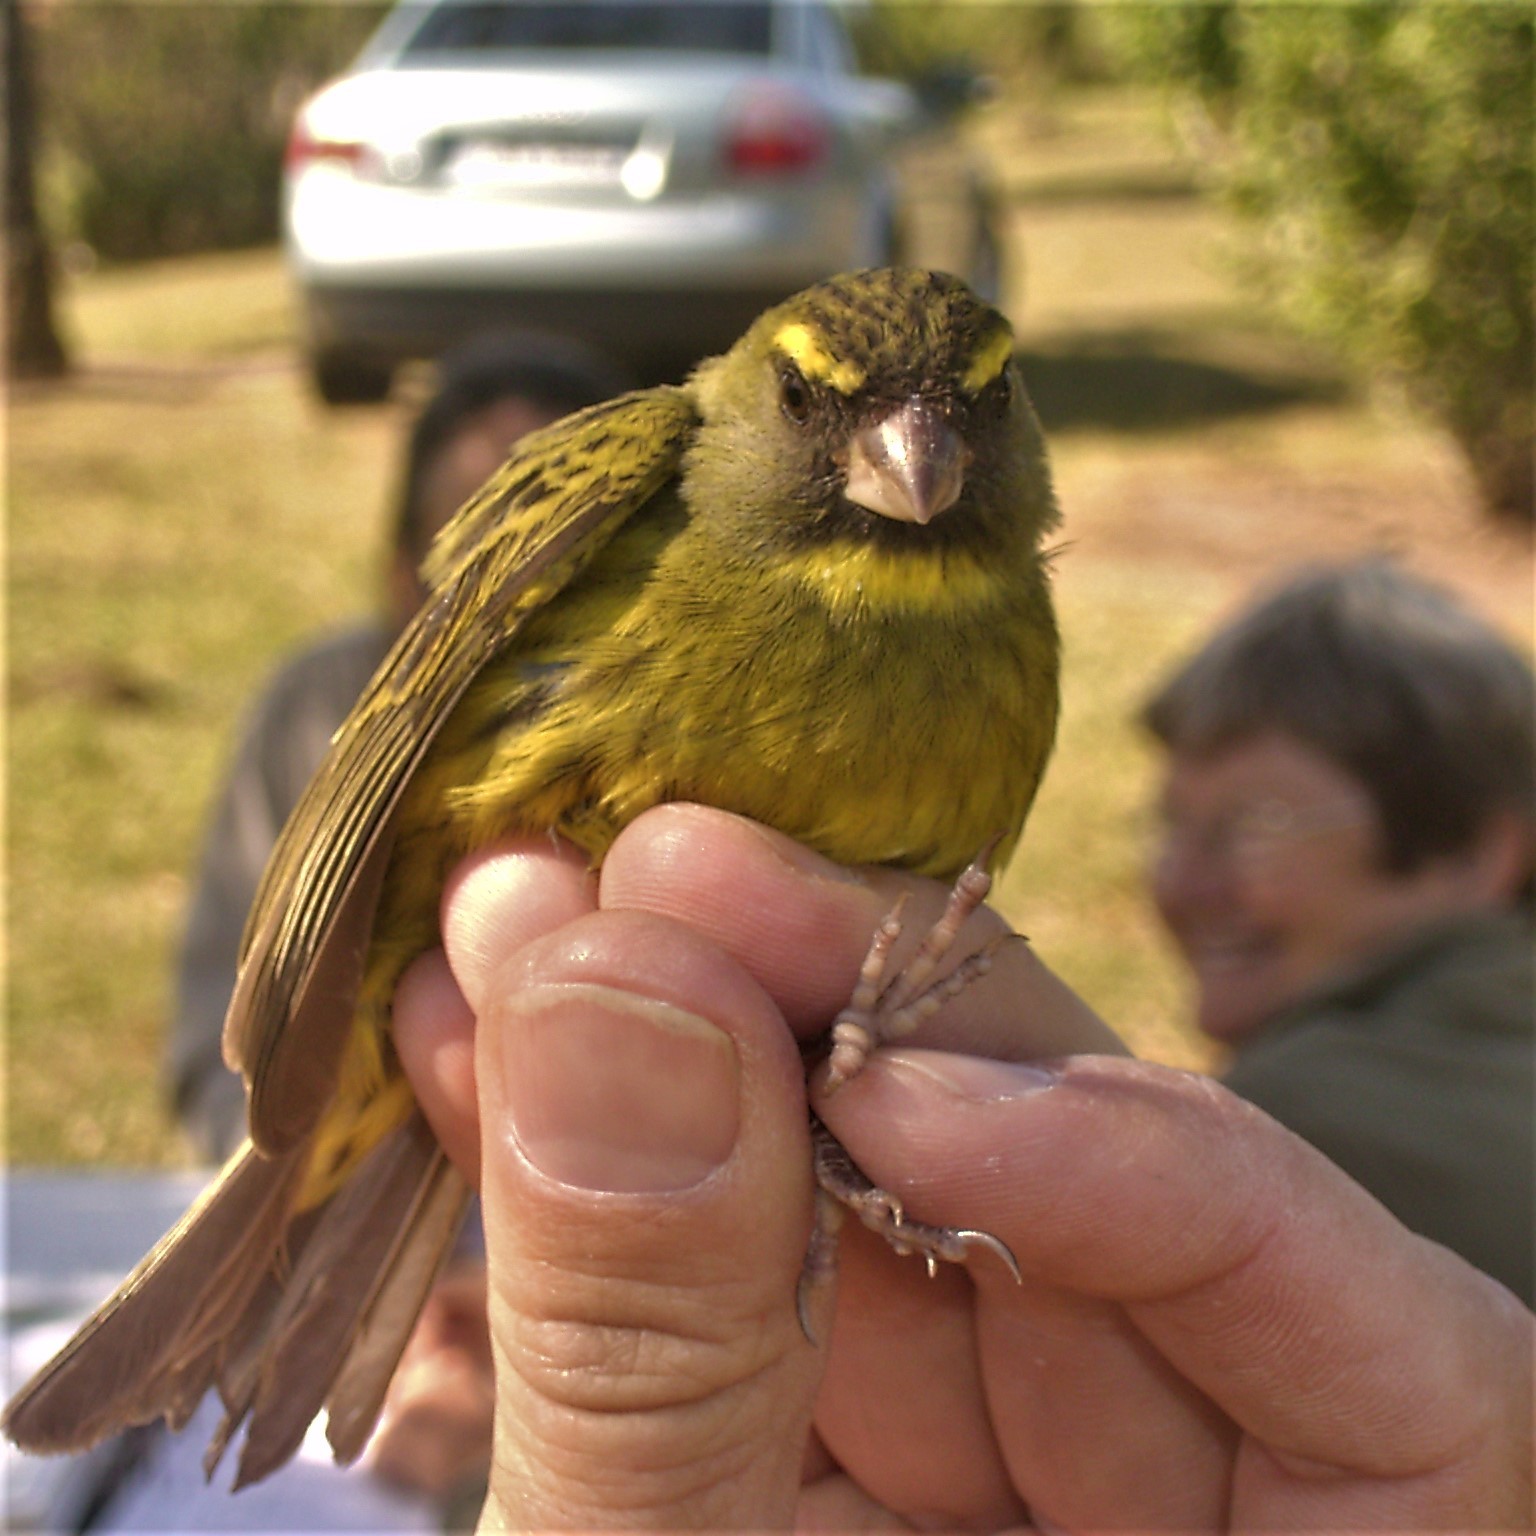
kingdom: Animalia
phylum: Chordata
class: Aves
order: Passeriformes
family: Fringillidae
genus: Crithagra
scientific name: Crithagra scotops
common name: Forest canary
